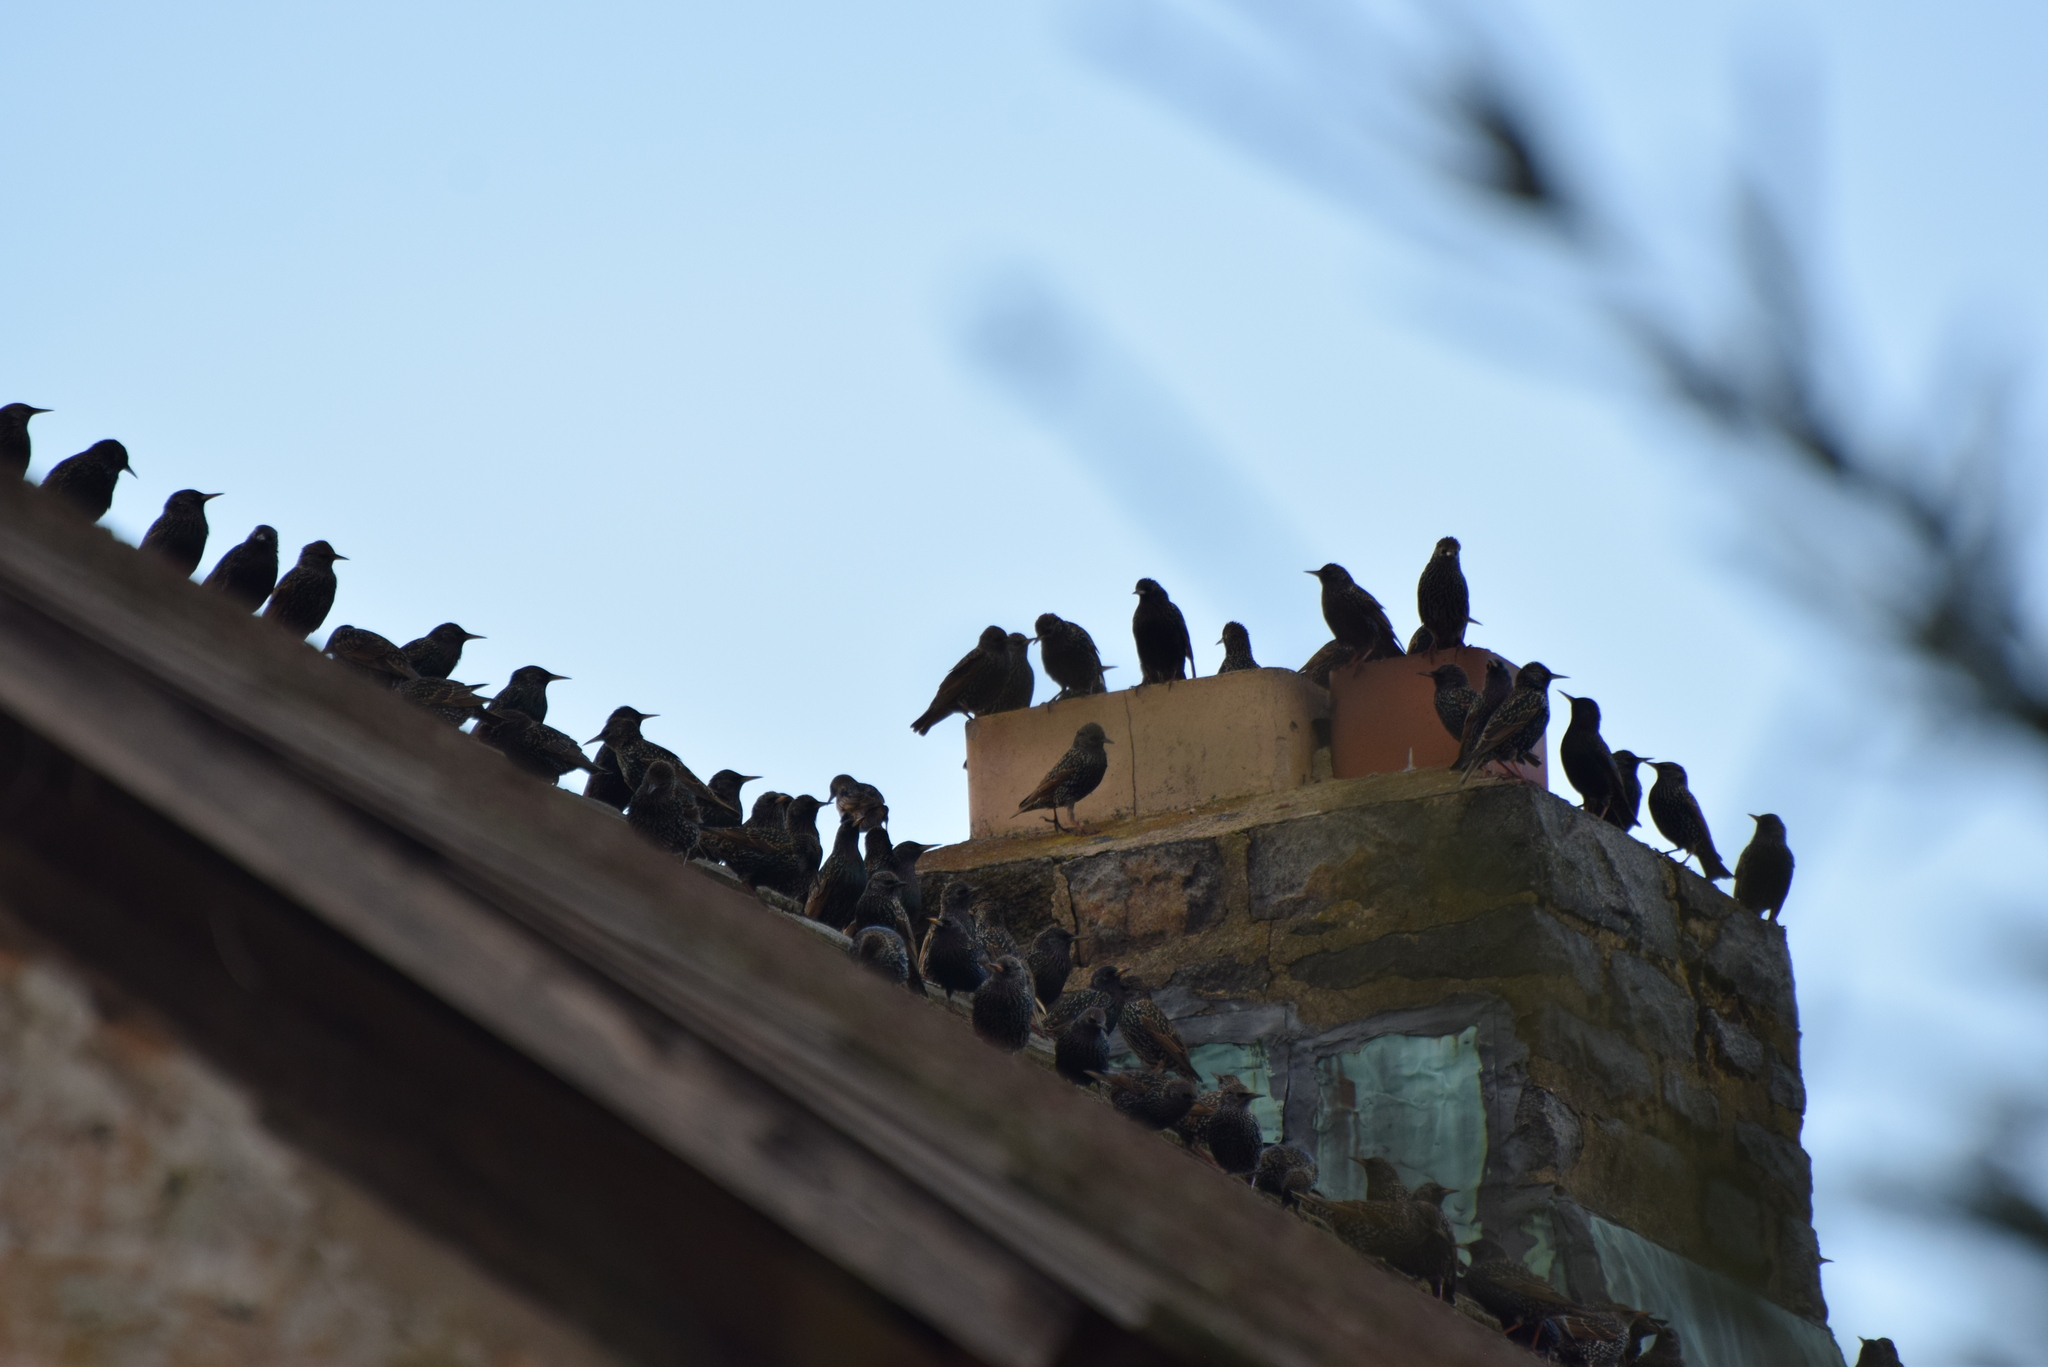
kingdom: Animalia
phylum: Chordata
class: Aves
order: Passeriformes
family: Sturnidae
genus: Sturnus
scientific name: Sturnus vulgaris
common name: Common starling
